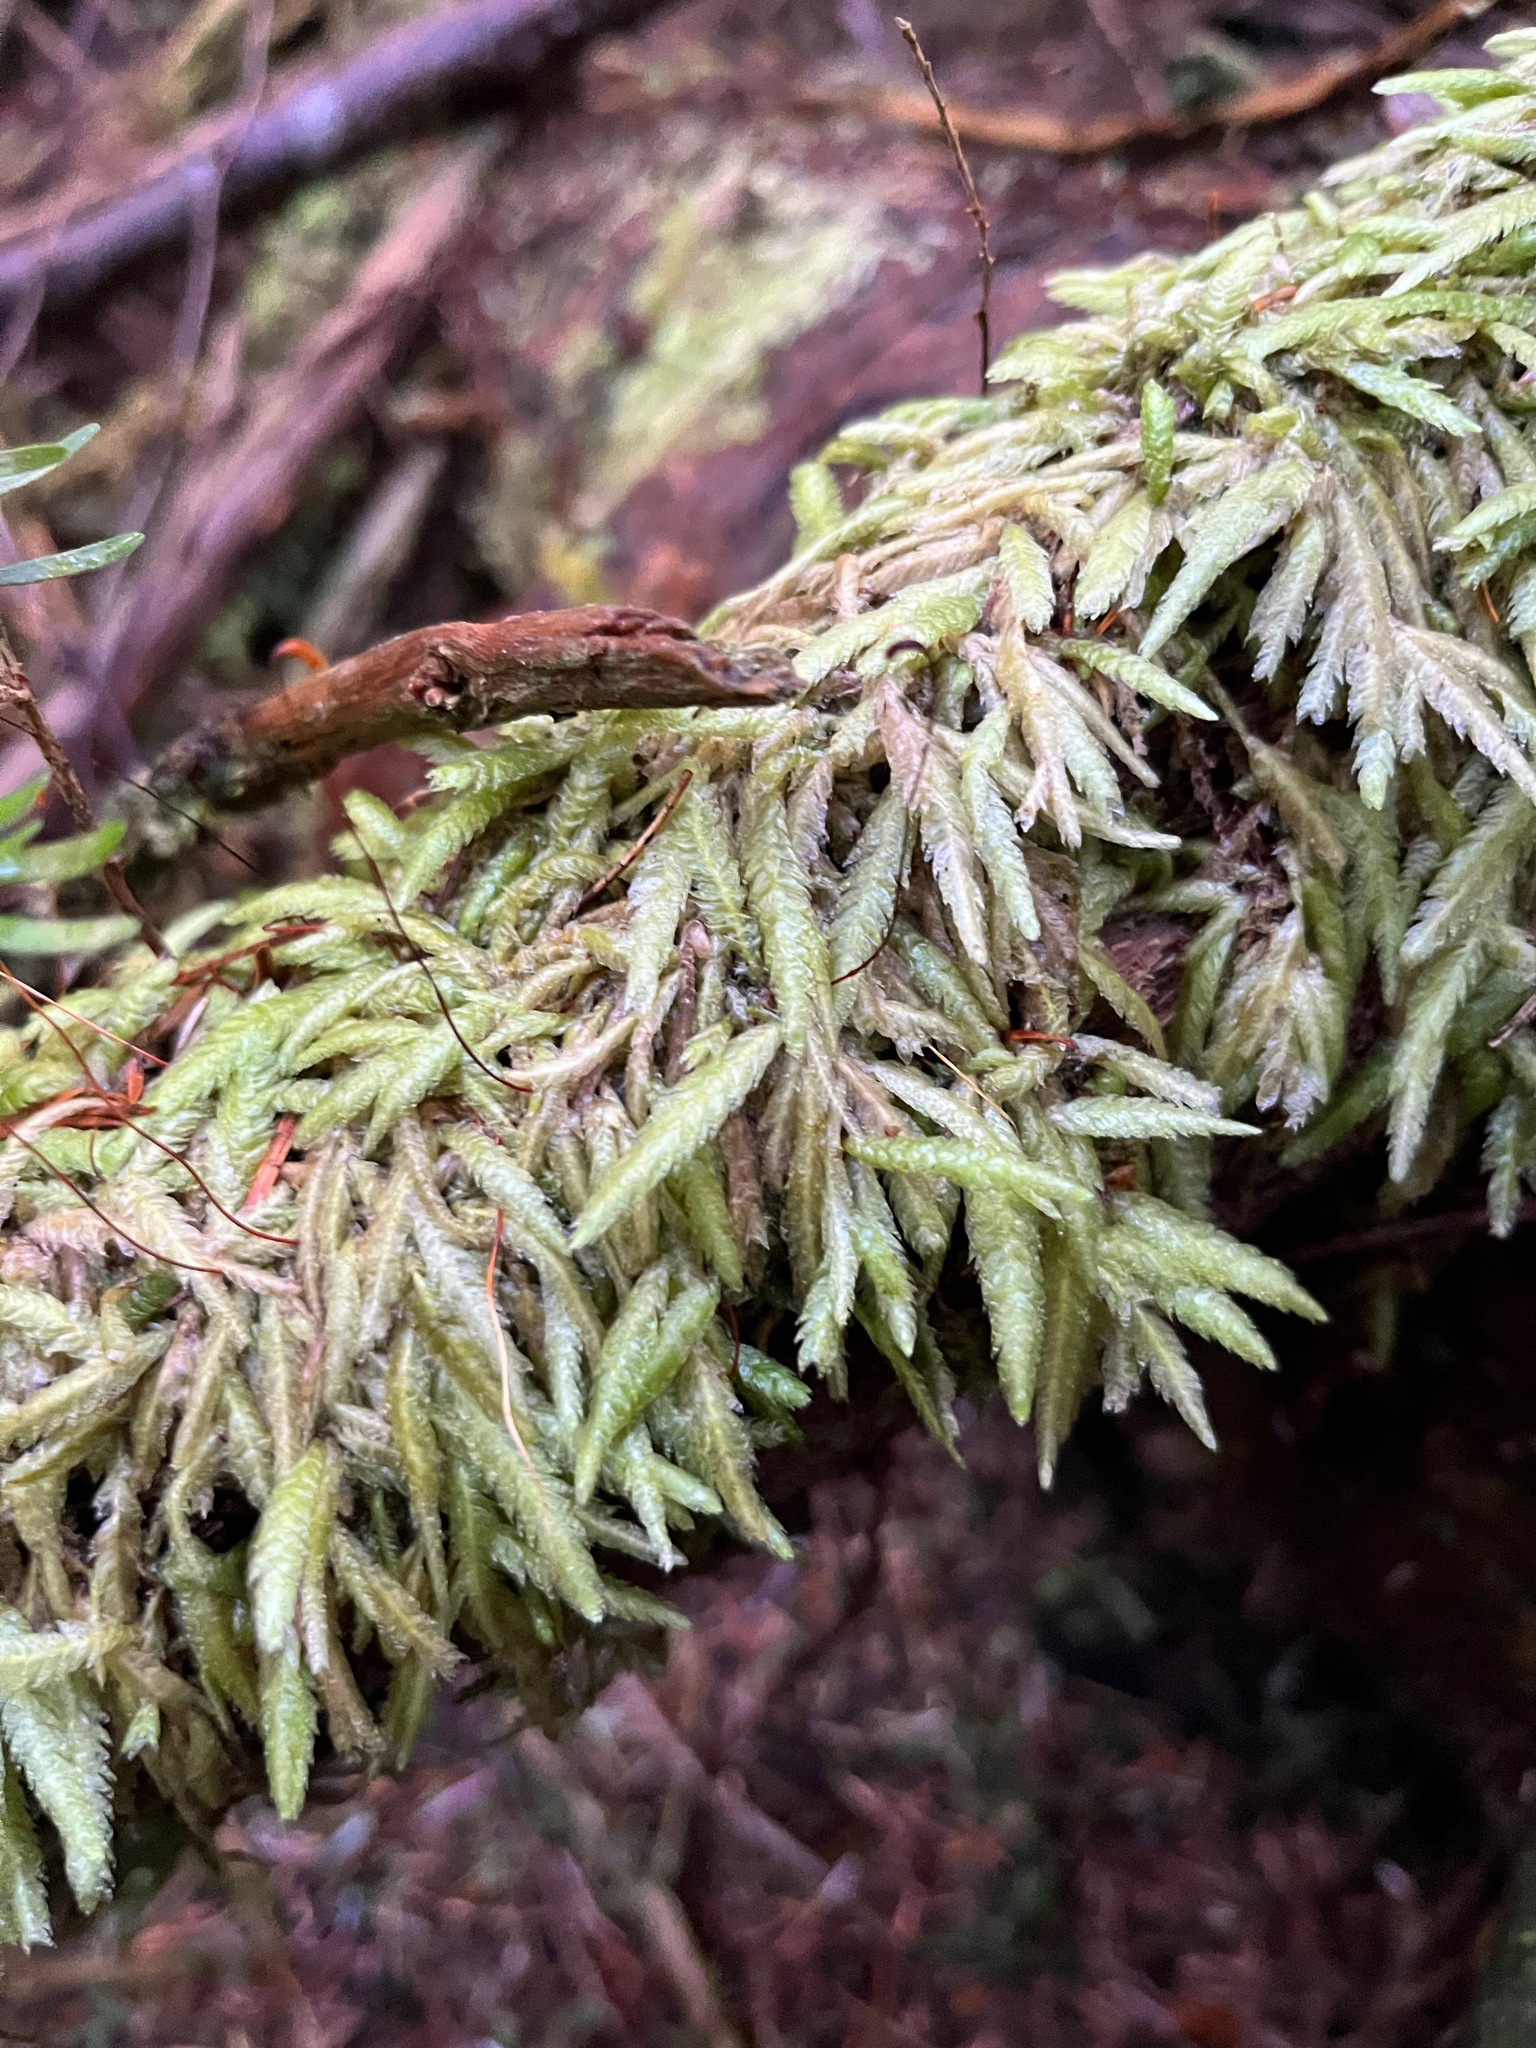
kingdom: Plantae
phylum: Bryophyta
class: Bryopsida
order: Hypnales
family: Plagiotheciaceae
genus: Plagiothecium
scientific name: Plagiothecium undulatum
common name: Waved silk-moss
